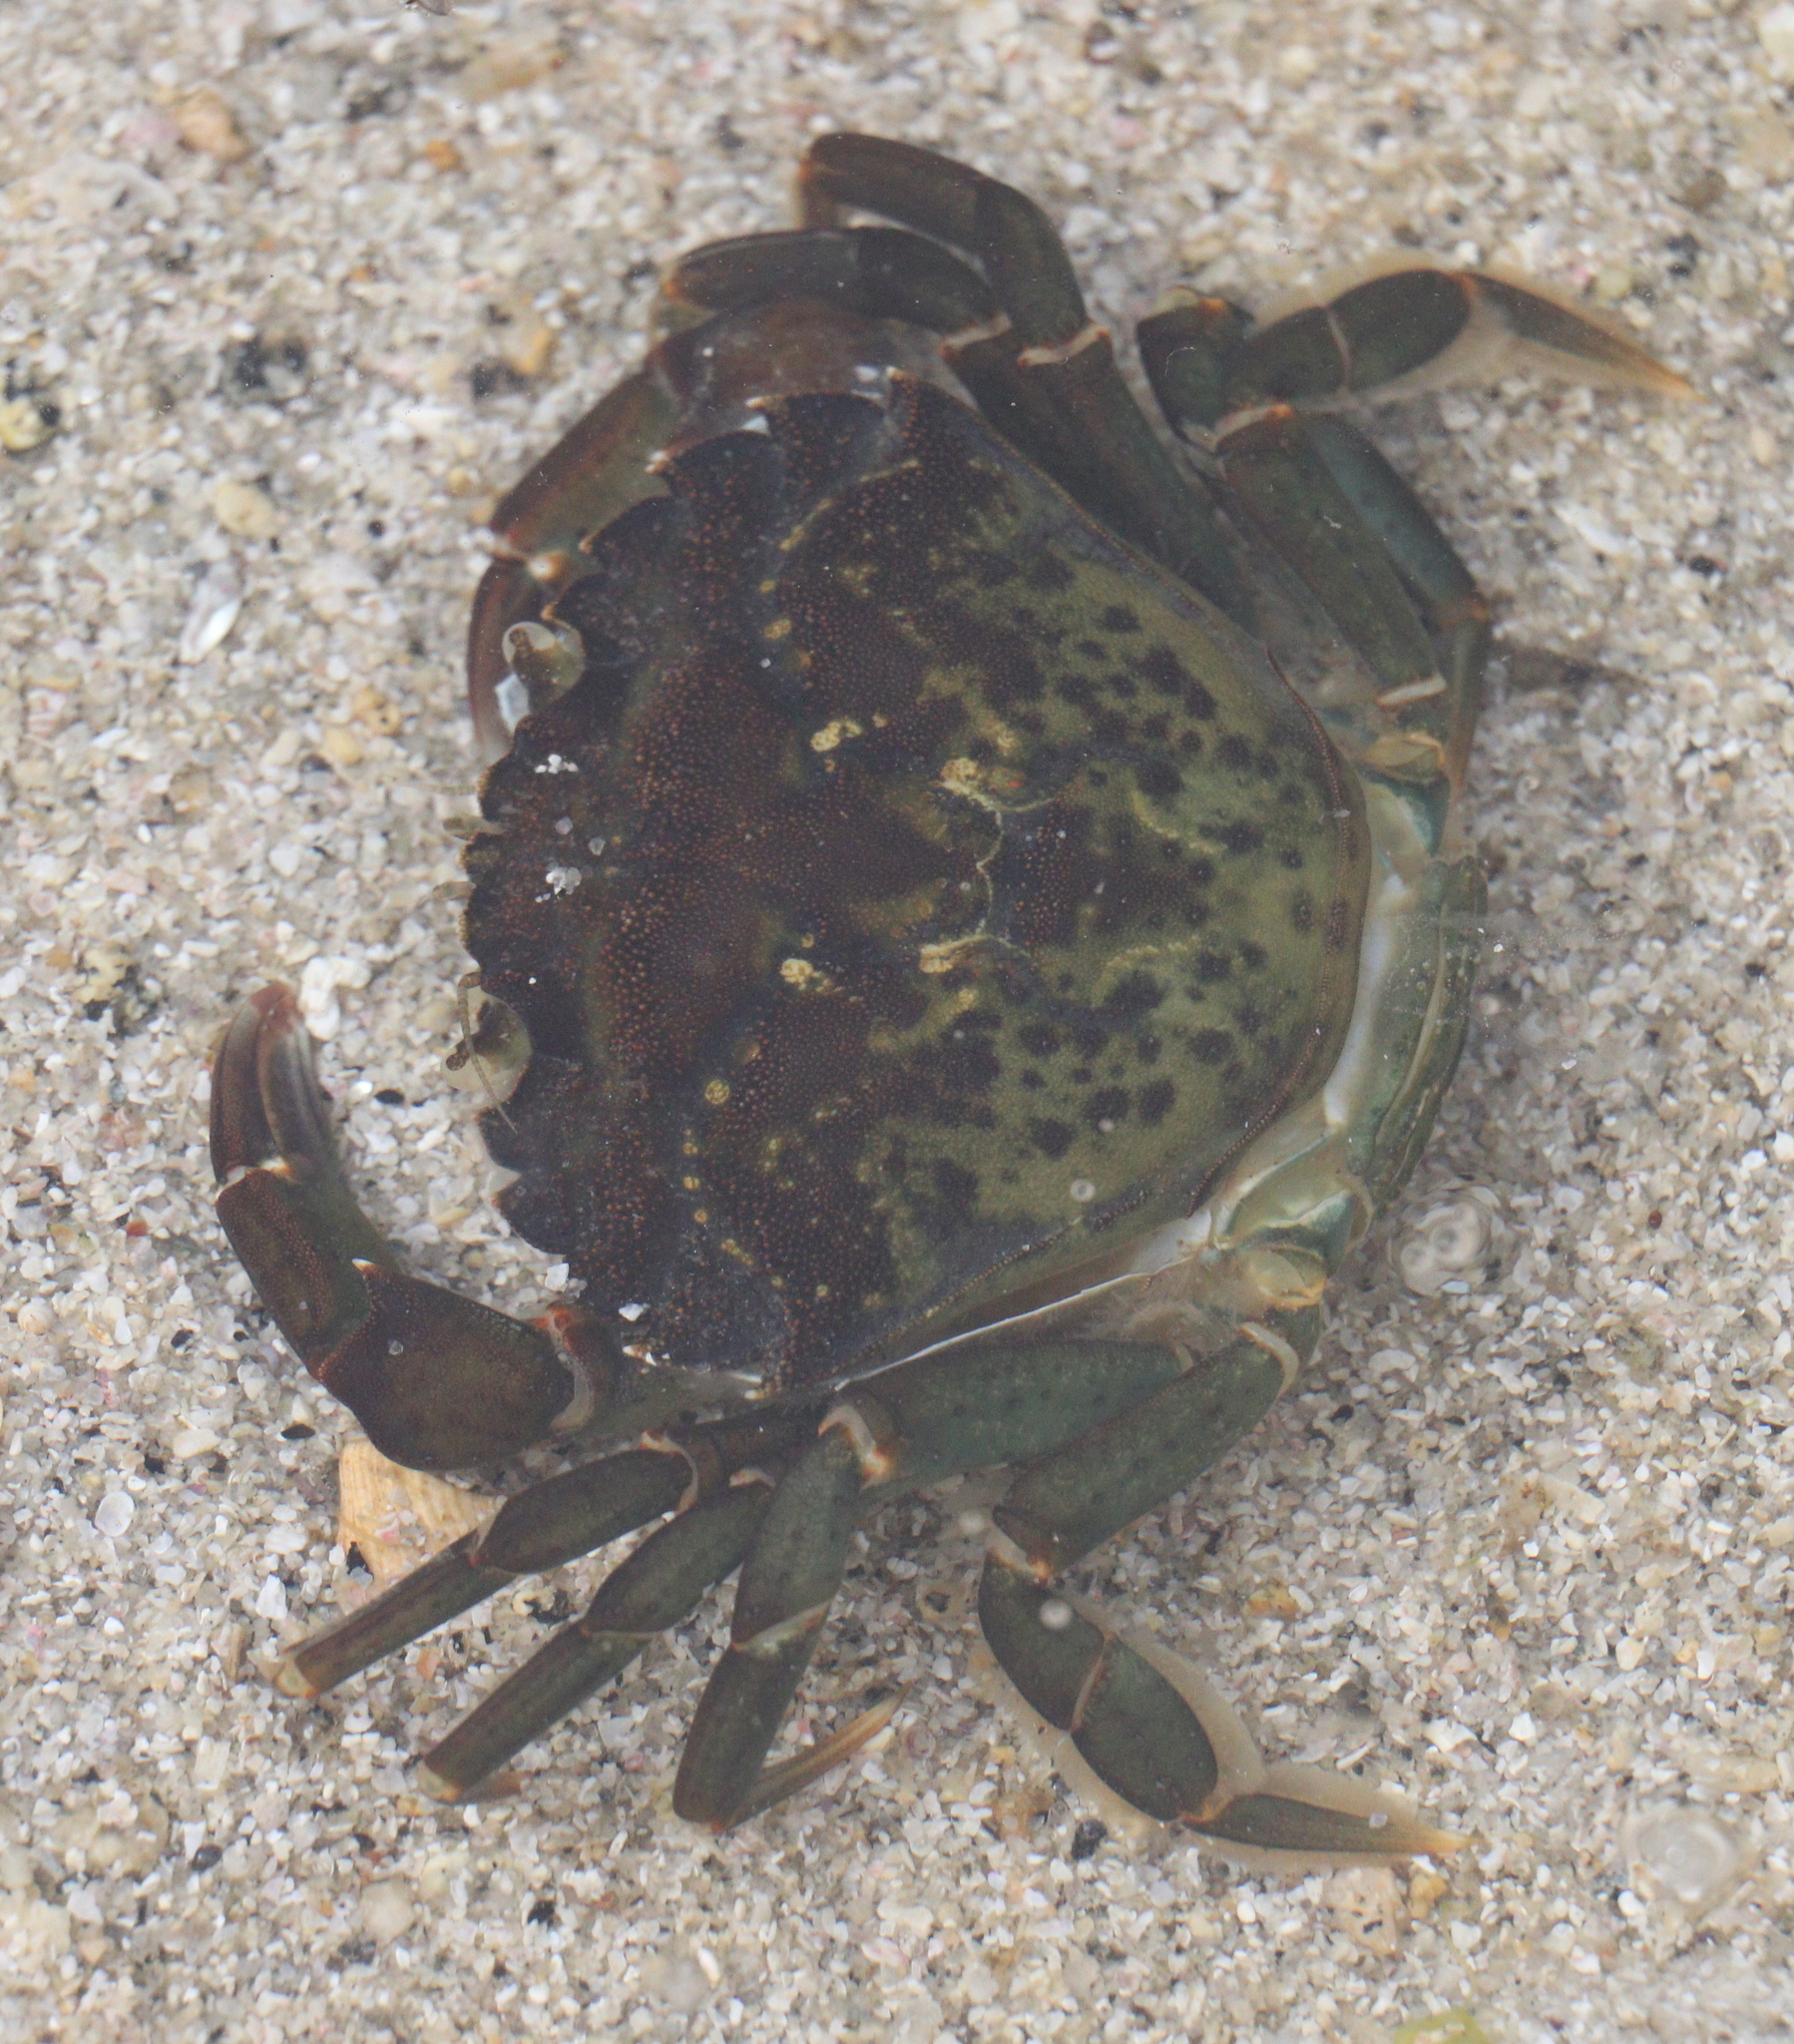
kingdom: Animalia
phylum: Arthropoda
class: Malacostraca
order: Decapoda
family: Carcinidae
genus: Carcinus
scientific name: Carcinus maenas
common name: European green crab
